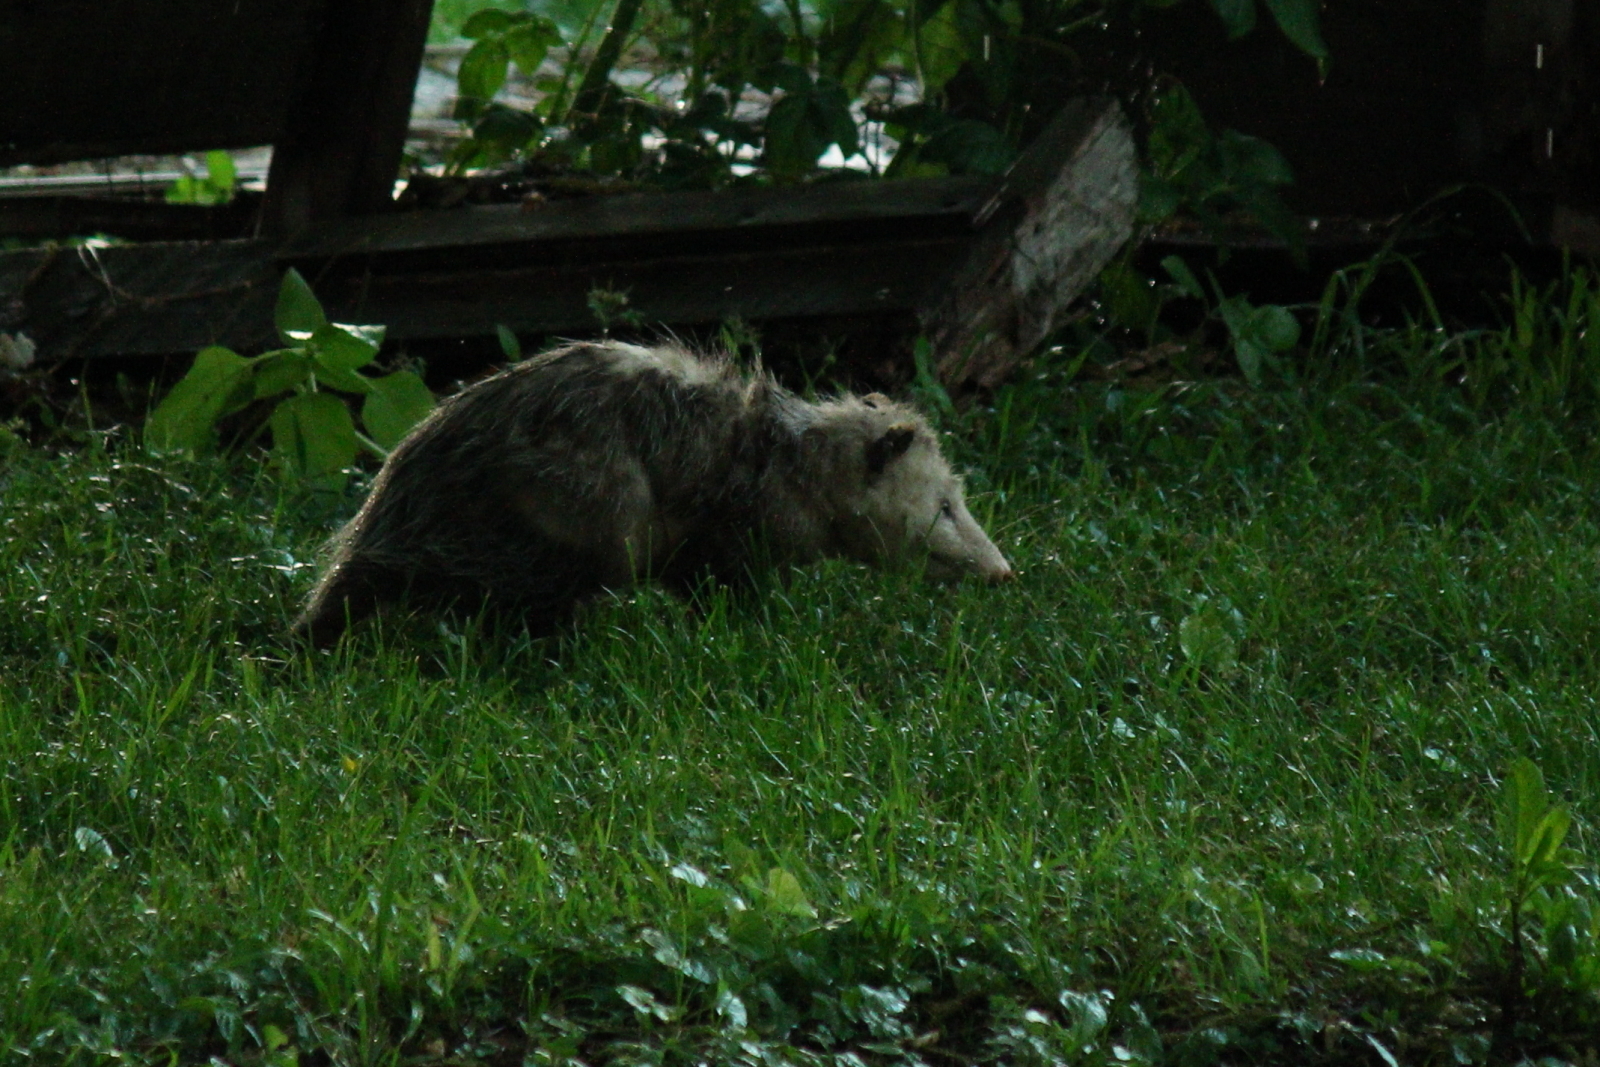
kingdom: Animalia
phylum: Chordata
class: Mammalia
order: Didelphimorphia
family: Didelphidae
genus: Didelphis
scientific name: Didelphis virginiana
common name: Virginia opossum
